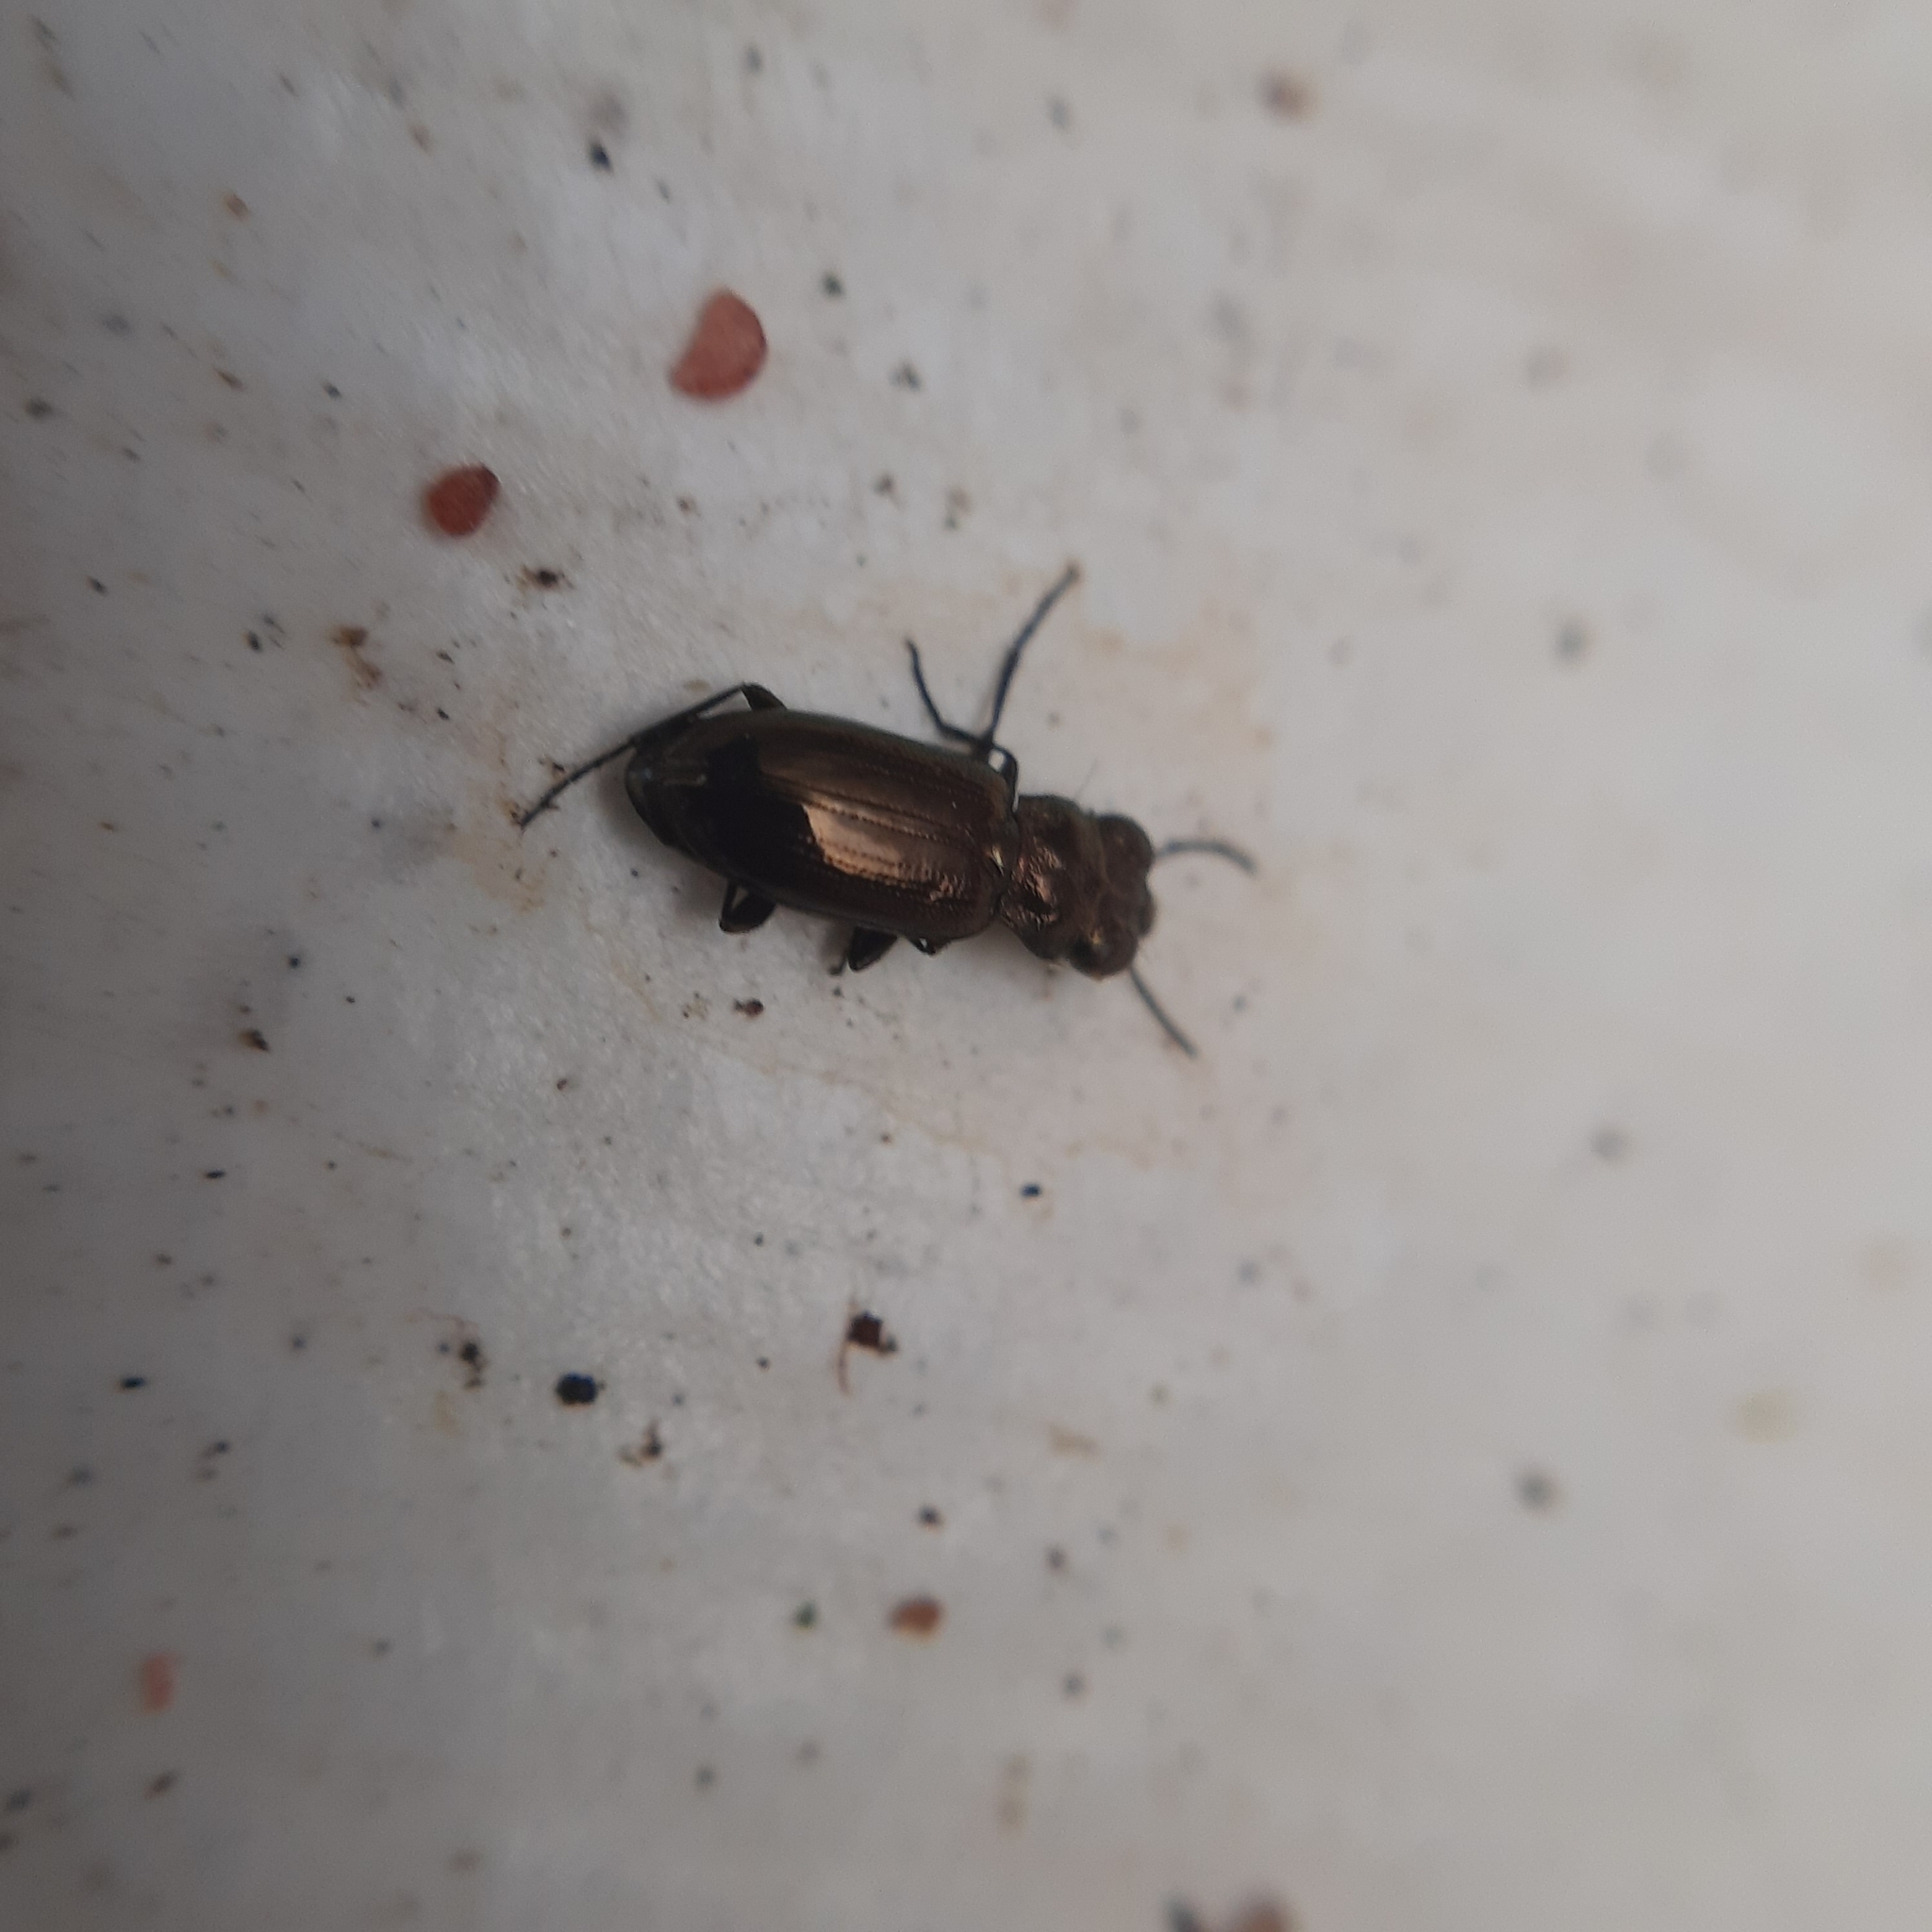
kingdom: Animalia
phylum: Arthropoda
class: Insecta
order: Coleoptera
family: Carabidae
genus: Notiophilus
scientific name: Notiophilus
